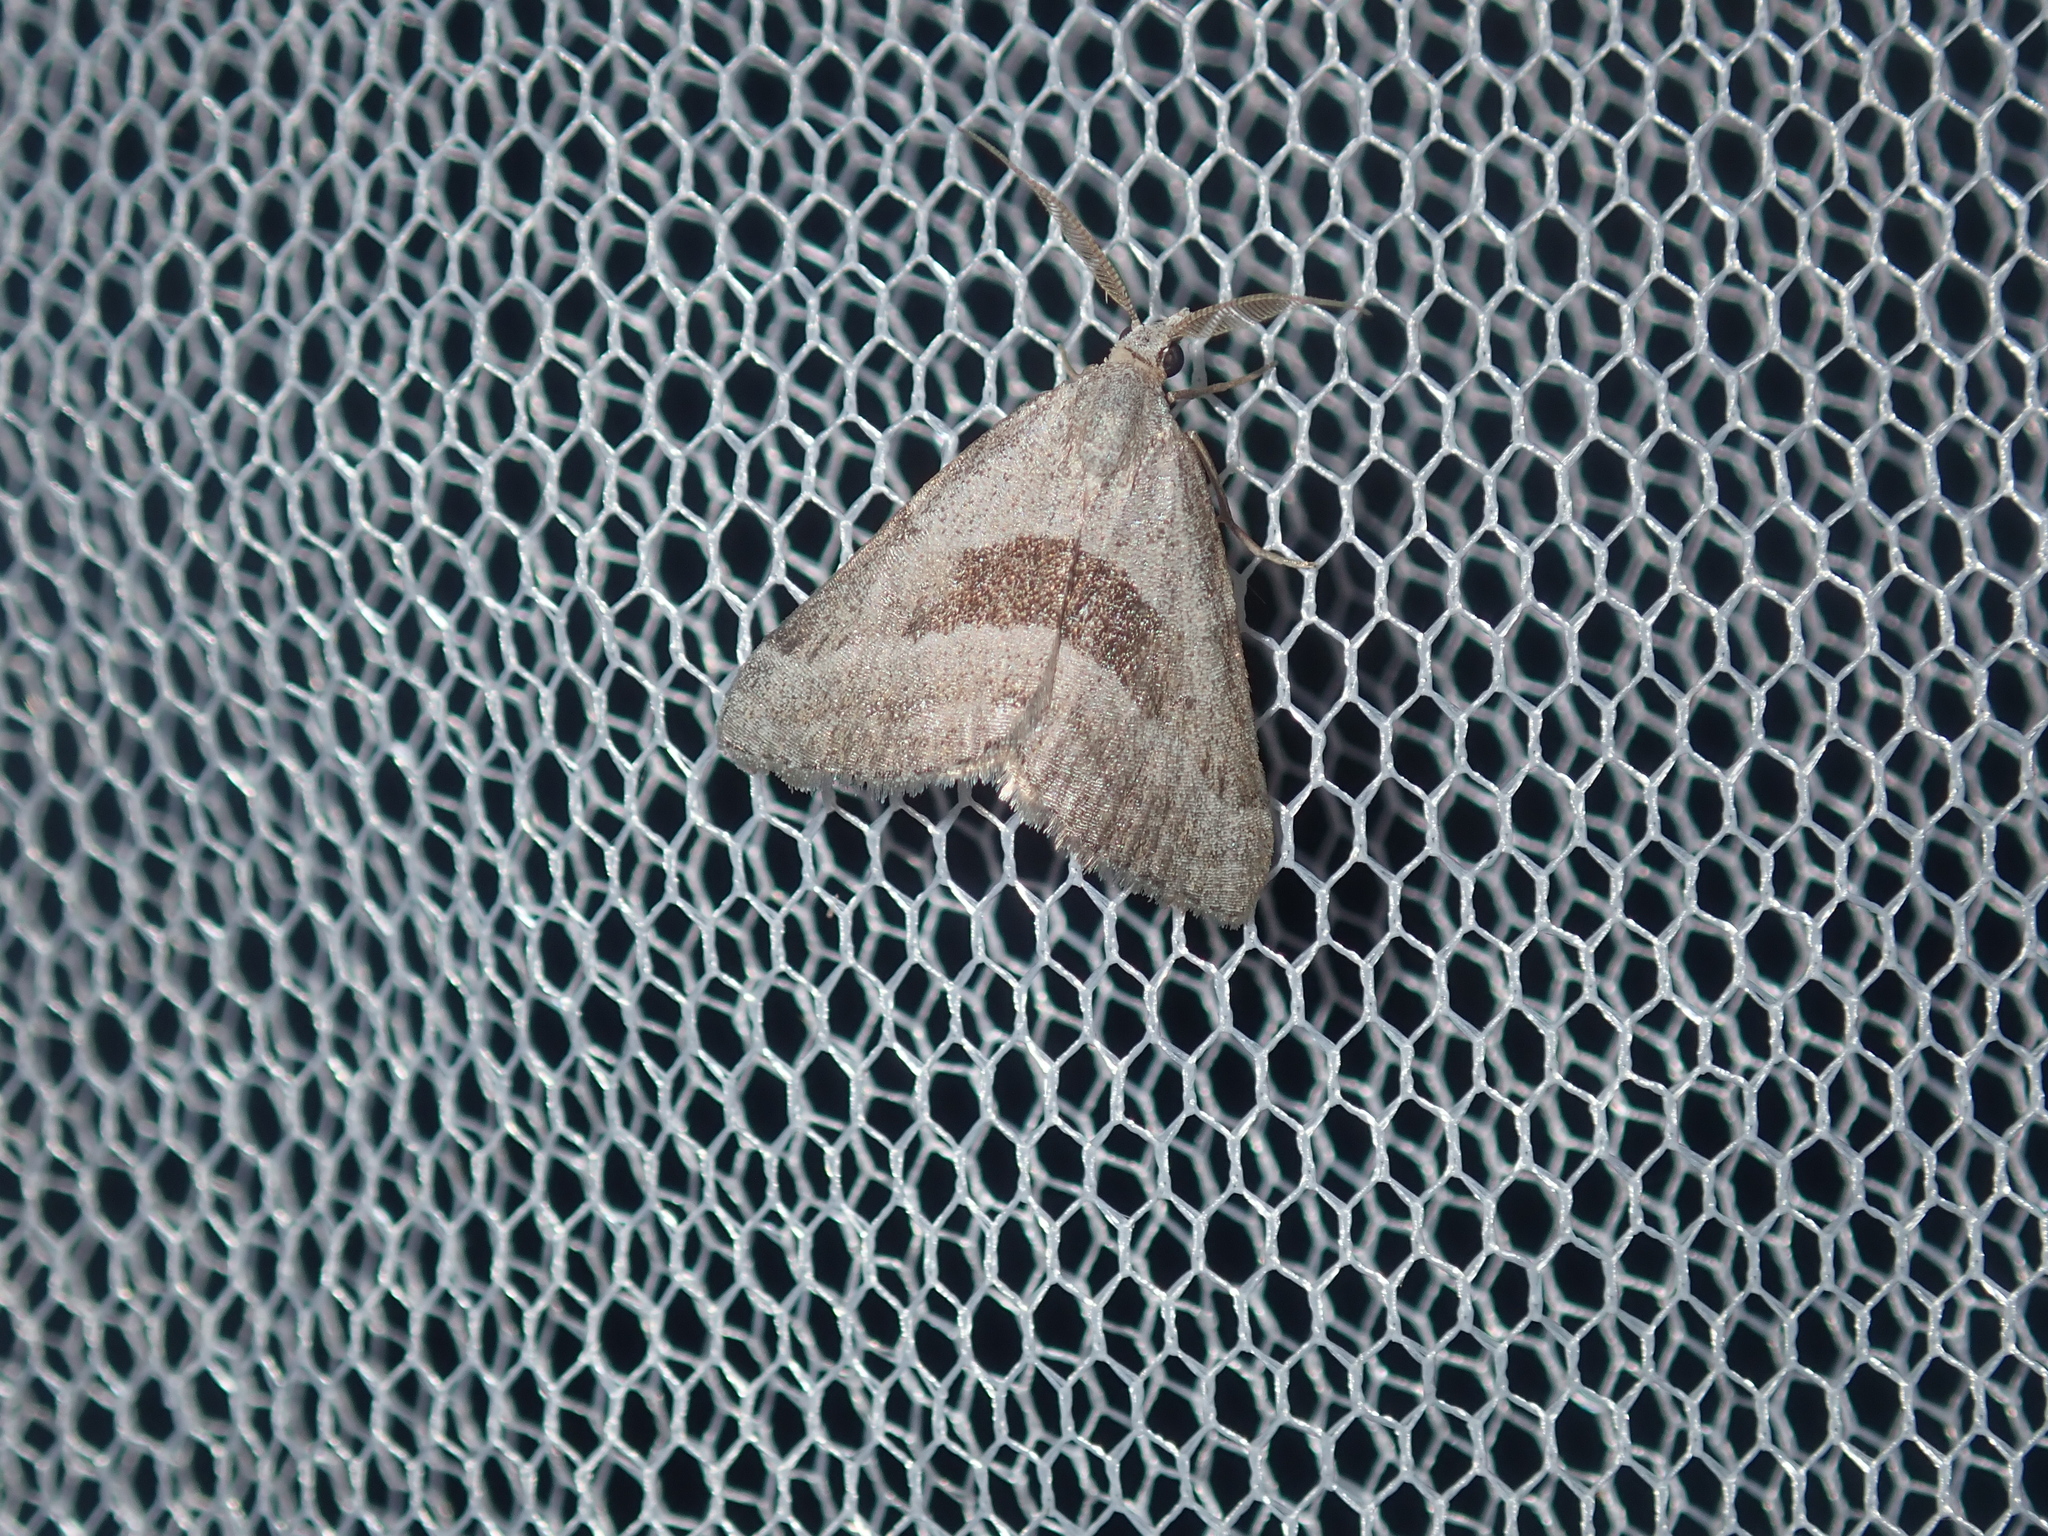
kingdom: Animalia
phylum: Arthropoda
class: Insecta
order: Lepidoptera
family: Geometridae
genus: Dichromodes
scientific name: Dichromodes leptozona
